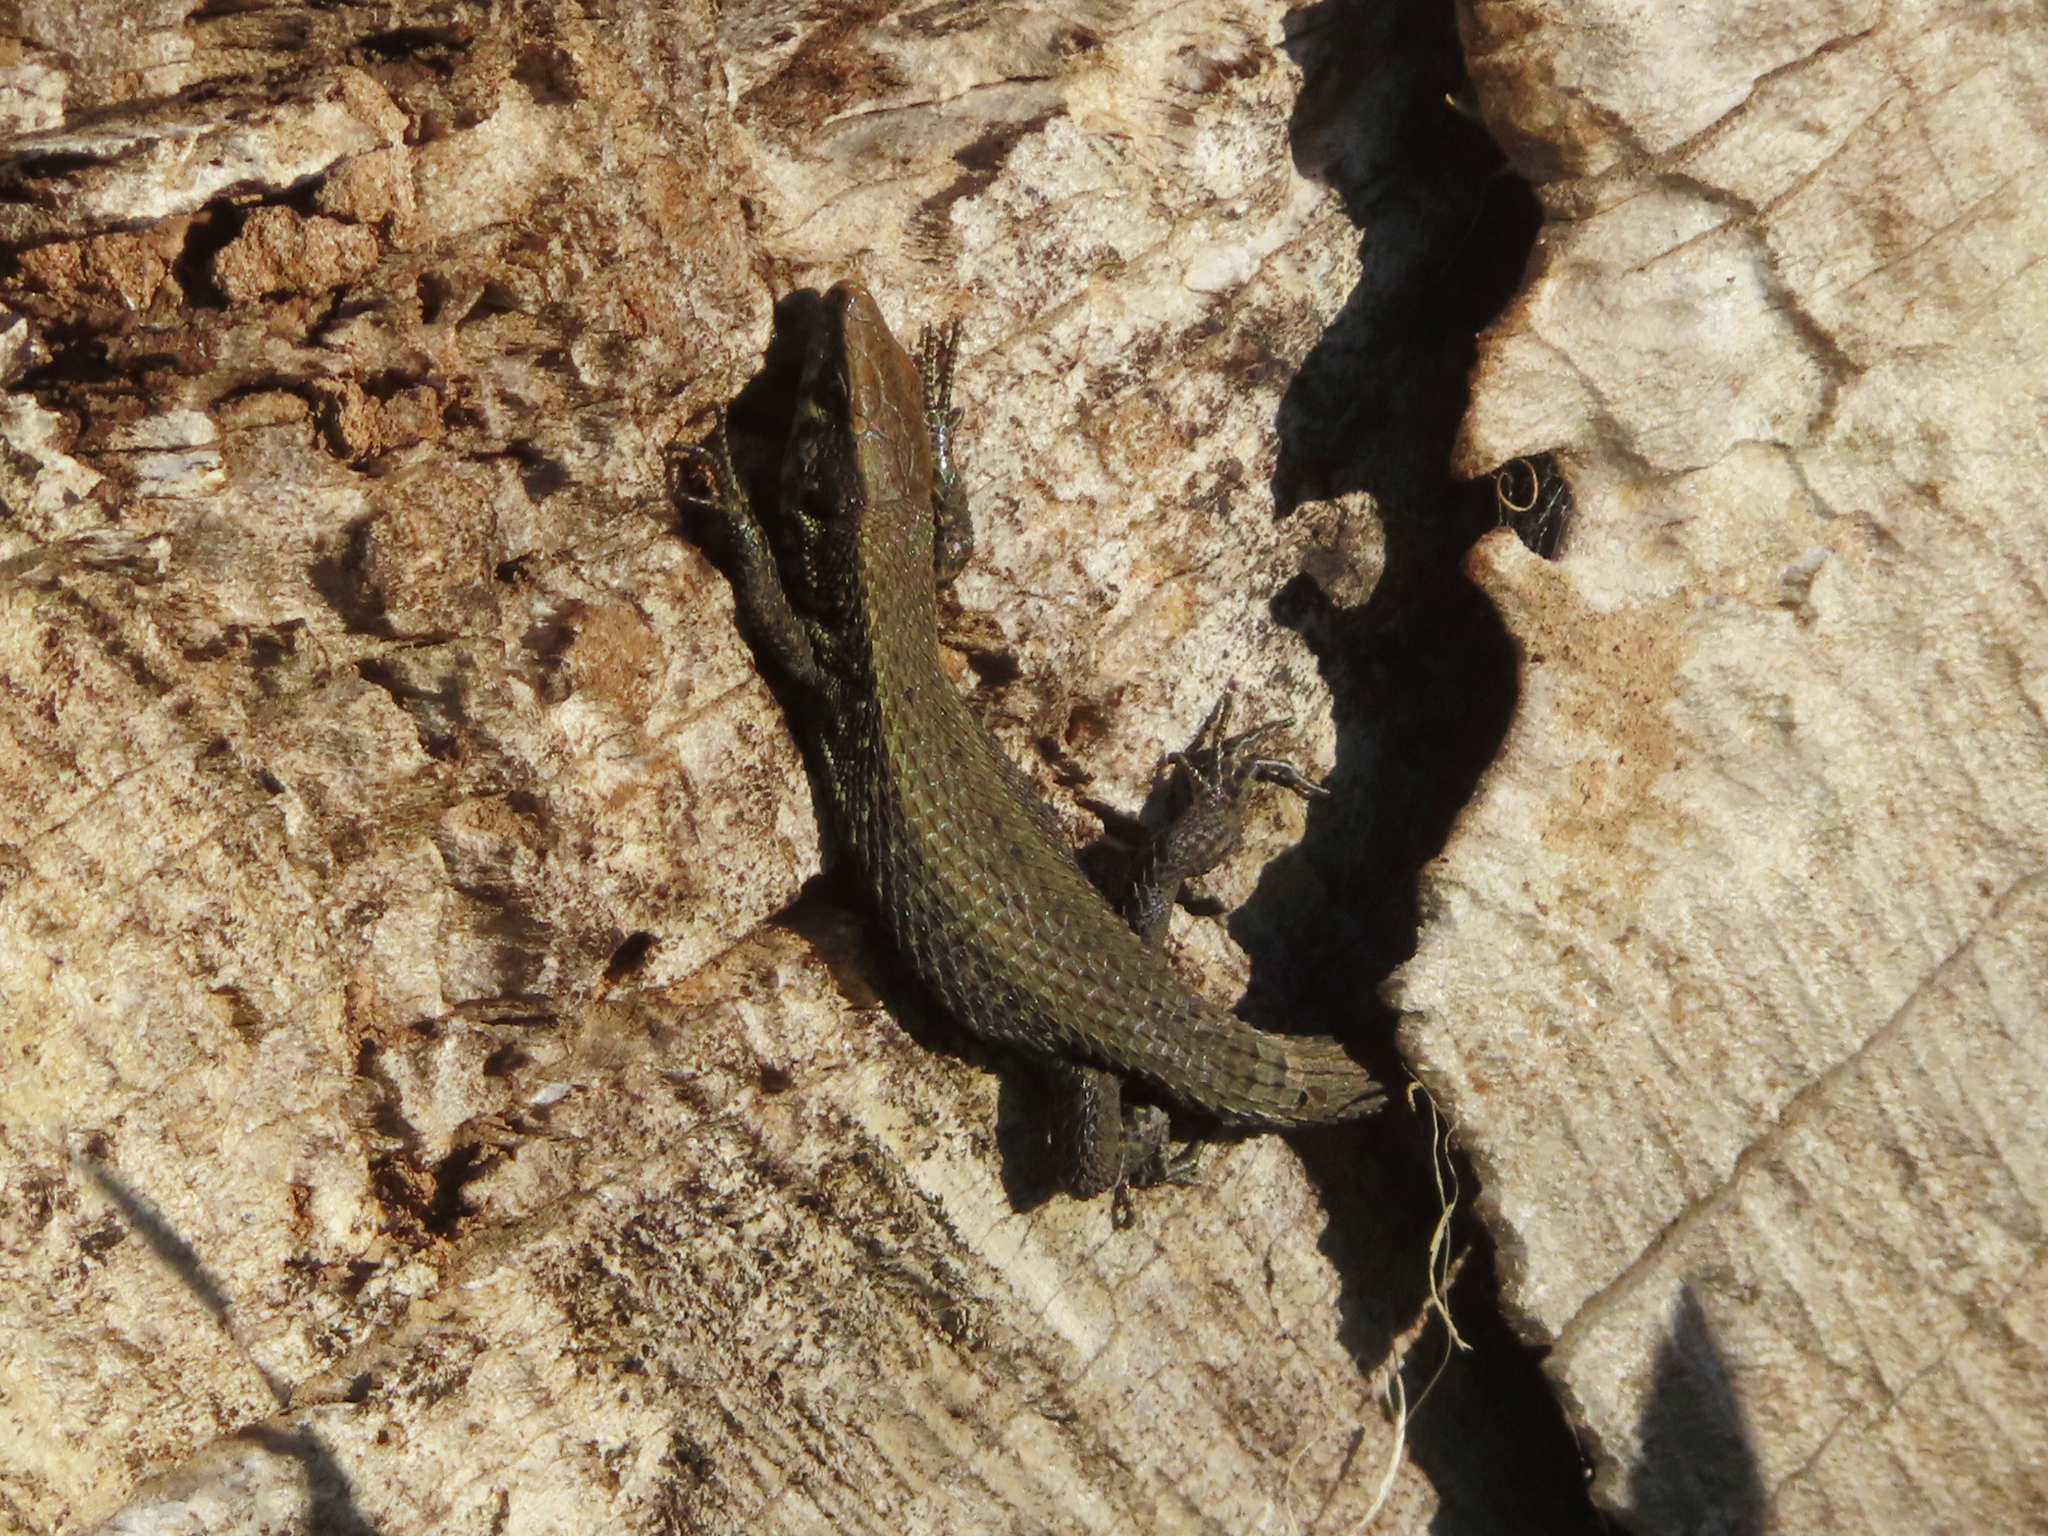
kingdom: Animalia
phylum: Chordata
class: Squamata
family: Lacertidae
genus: Algyroides
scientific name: Algyroides moreoticus
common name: Greek algyroides
